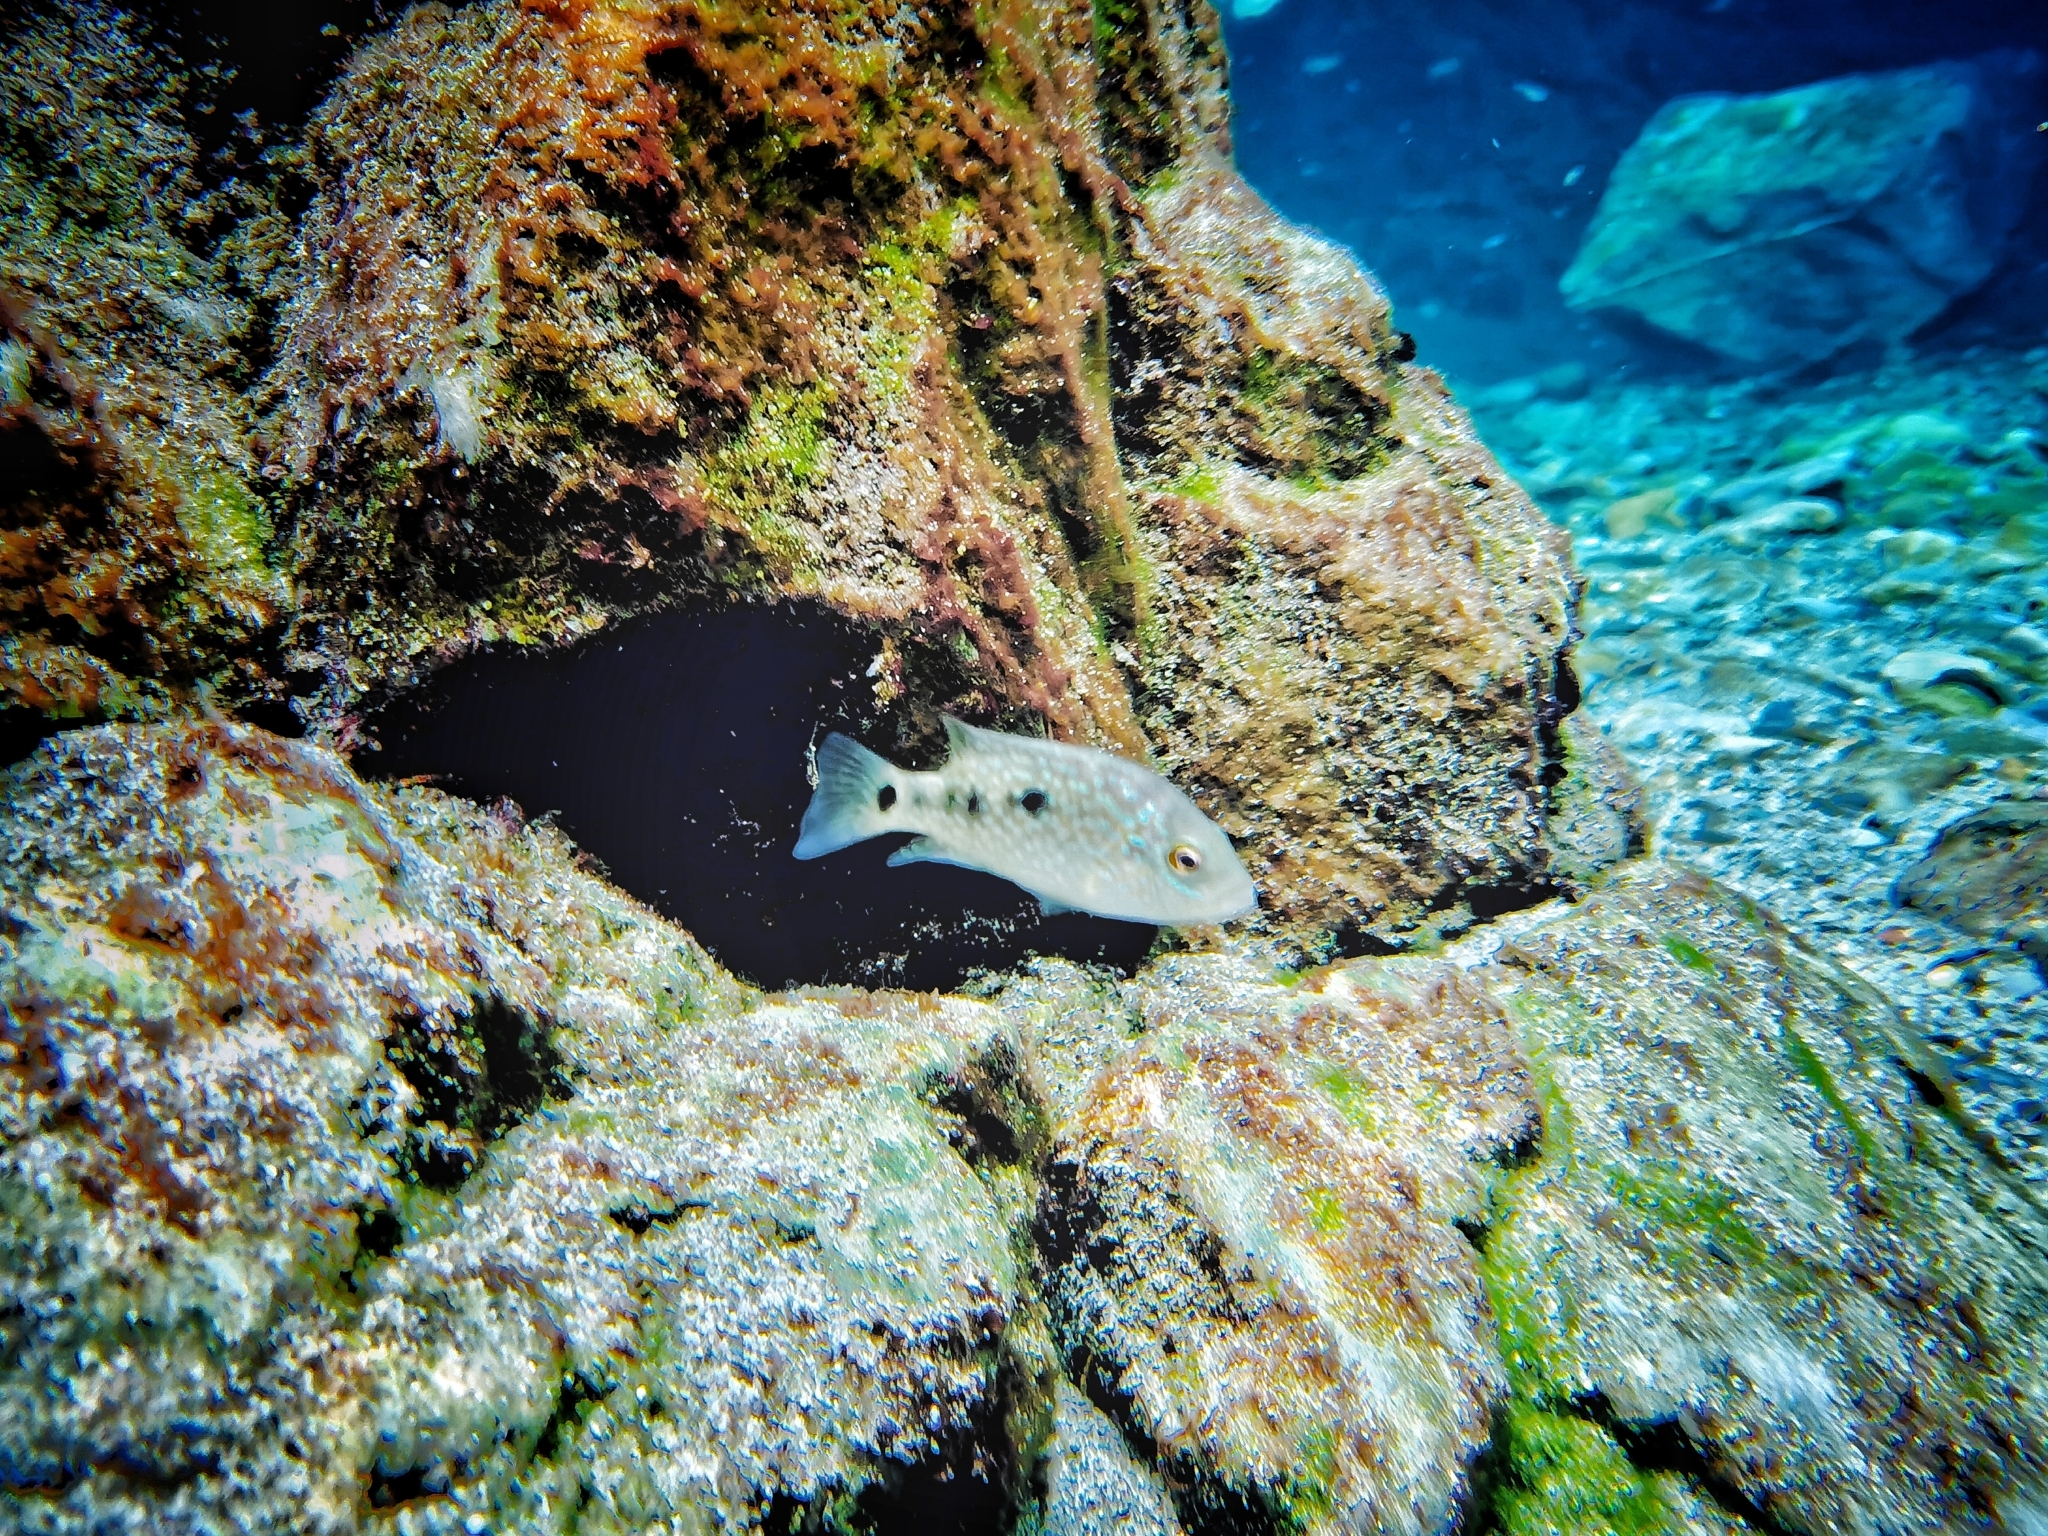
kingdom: Animalia
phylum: Chordata
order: Perciformes
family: Cichlidae
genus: Herichthys
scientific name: Herichthys carpintis
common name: Lowland cichlid
